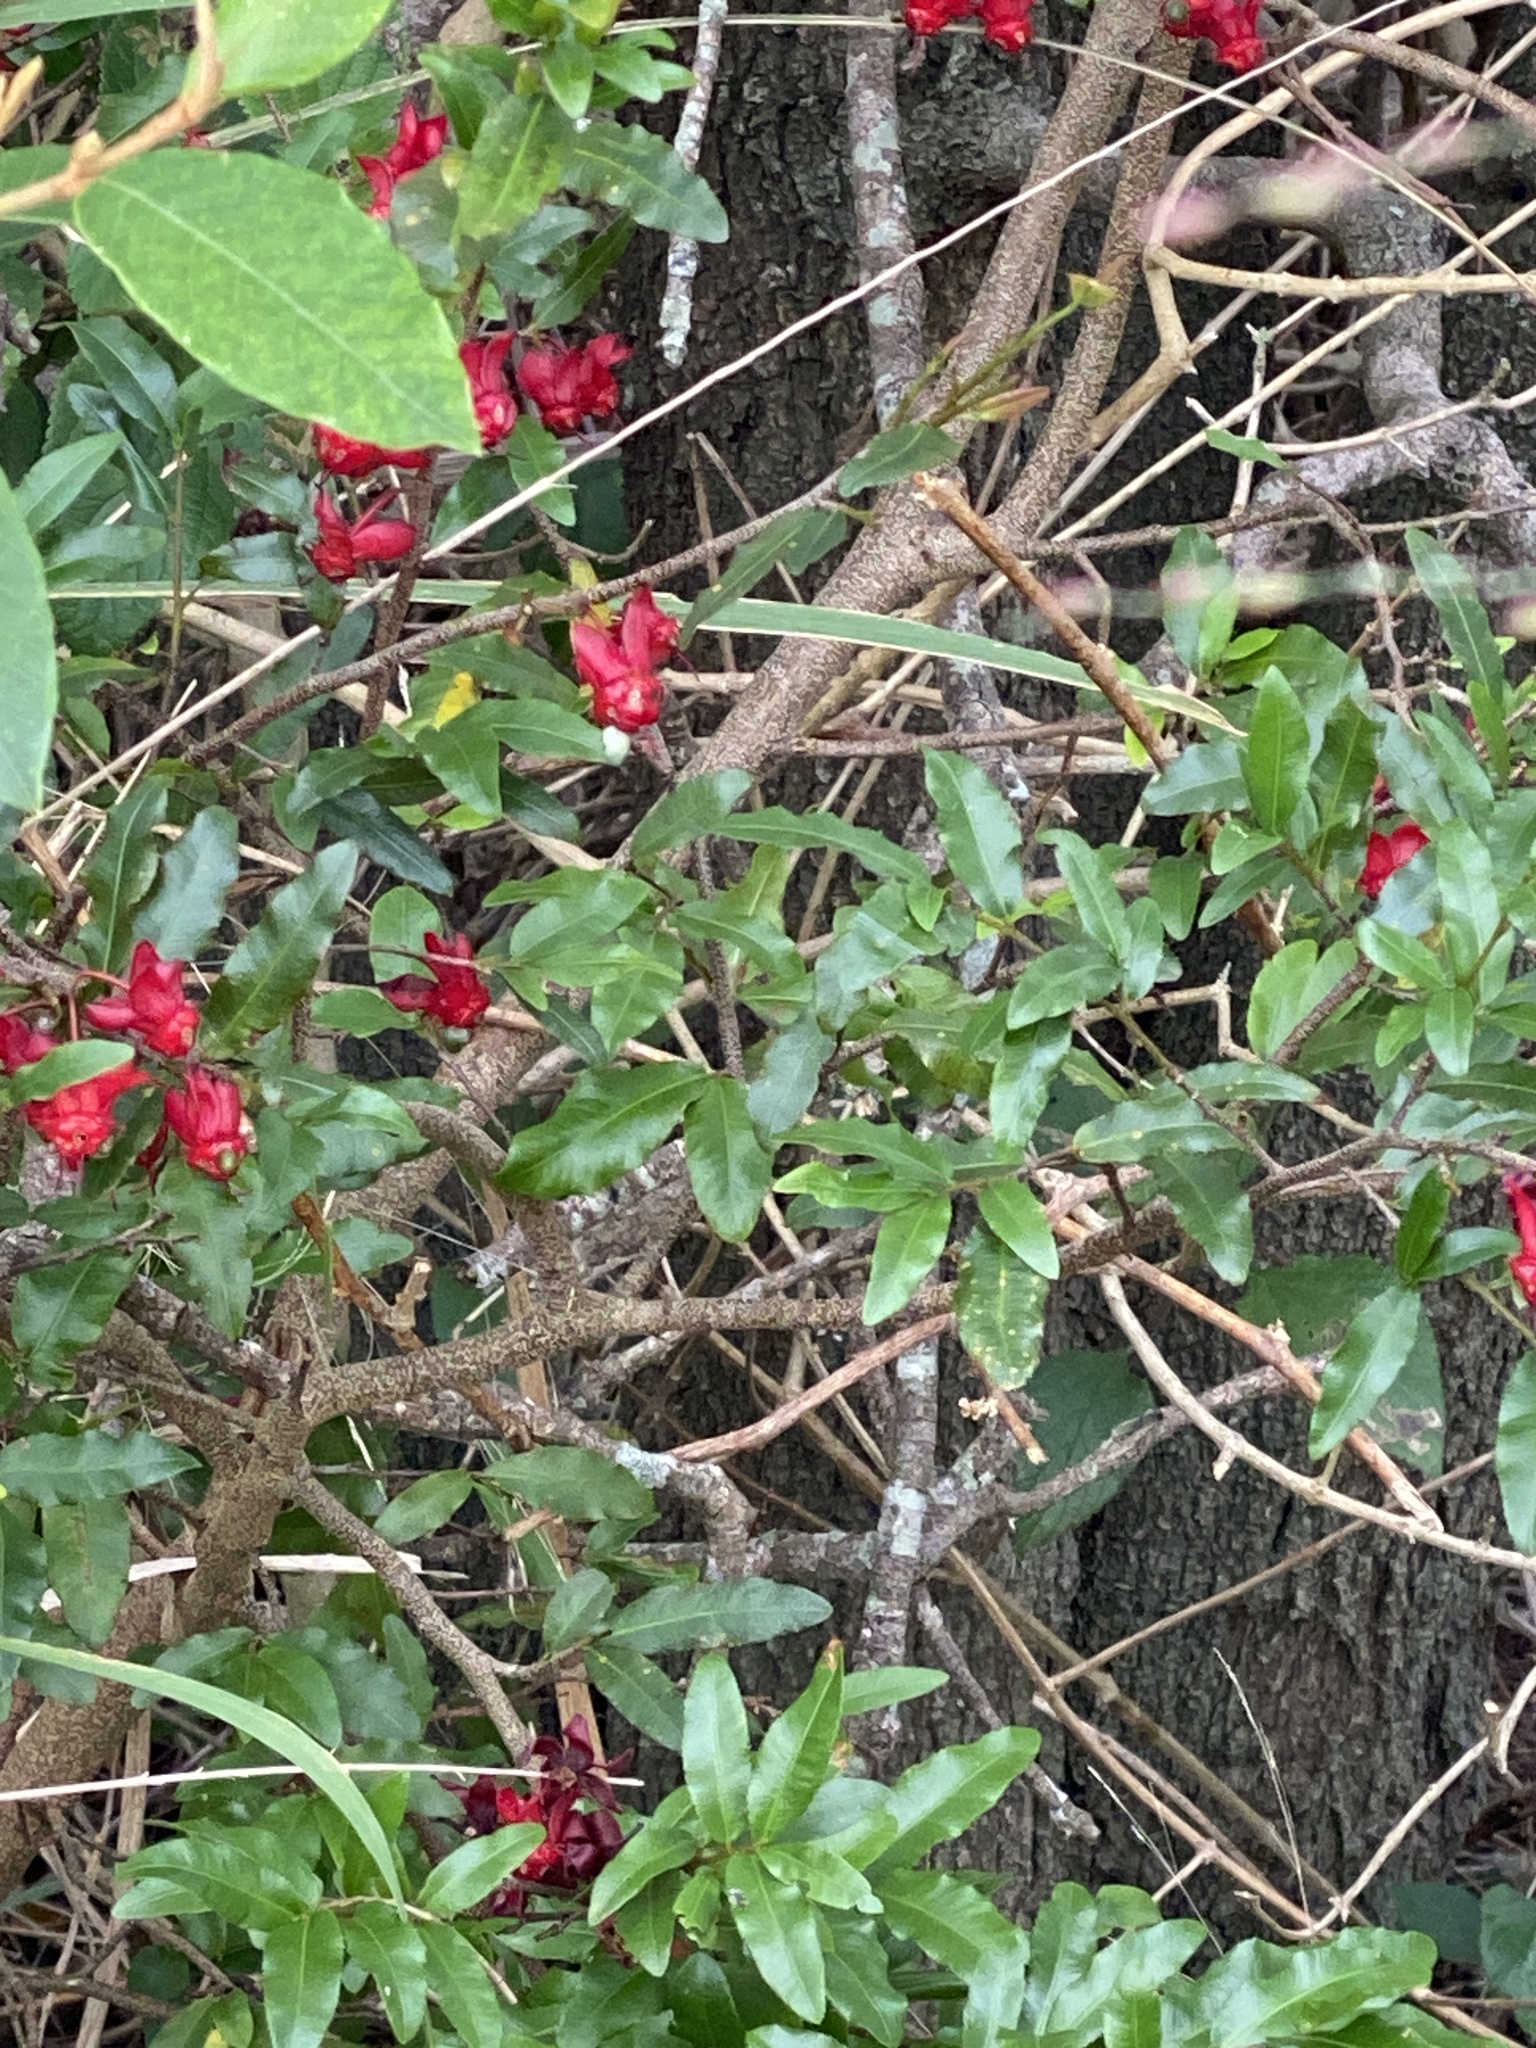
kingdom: Plantae
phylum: Tracheophyta
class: Magnoliopsida
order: Malpighiales
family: Ochnaceae
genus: Ochna
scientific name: Ochna serrulata
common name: Mickey mouse plant
